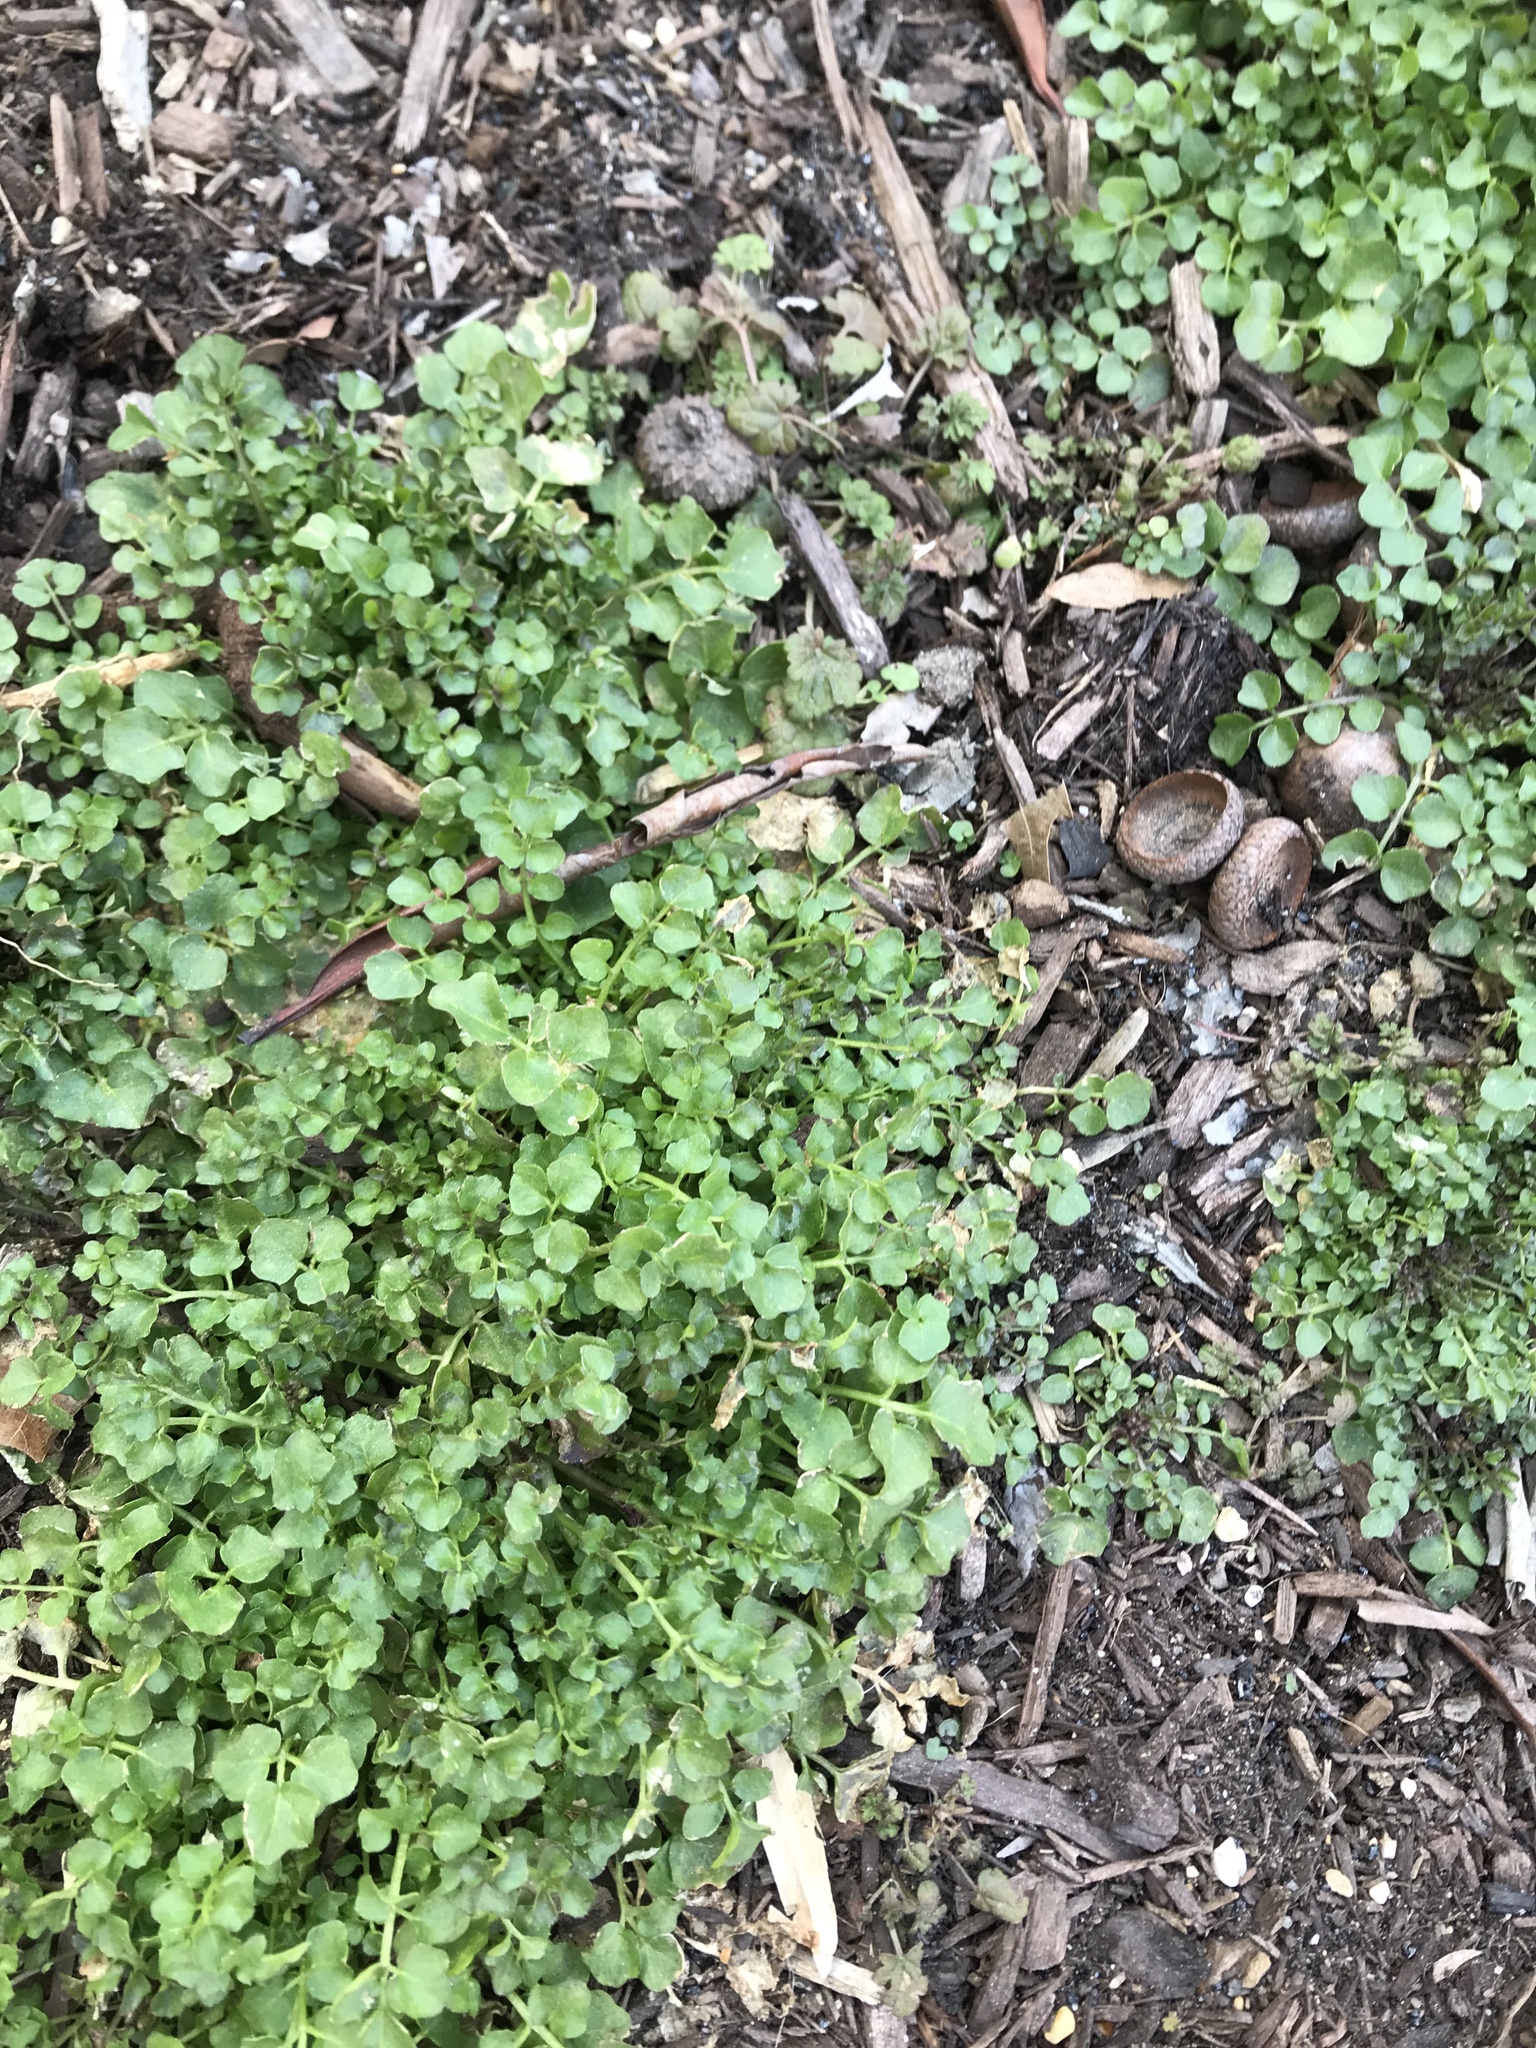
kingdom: Plantae
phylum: Tracheophyta
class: Magnoliopsida
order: Brassicales
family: Brassicaceae
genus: Cardamine
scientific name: Cardamine hirsuta
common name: Hairy bittercress
